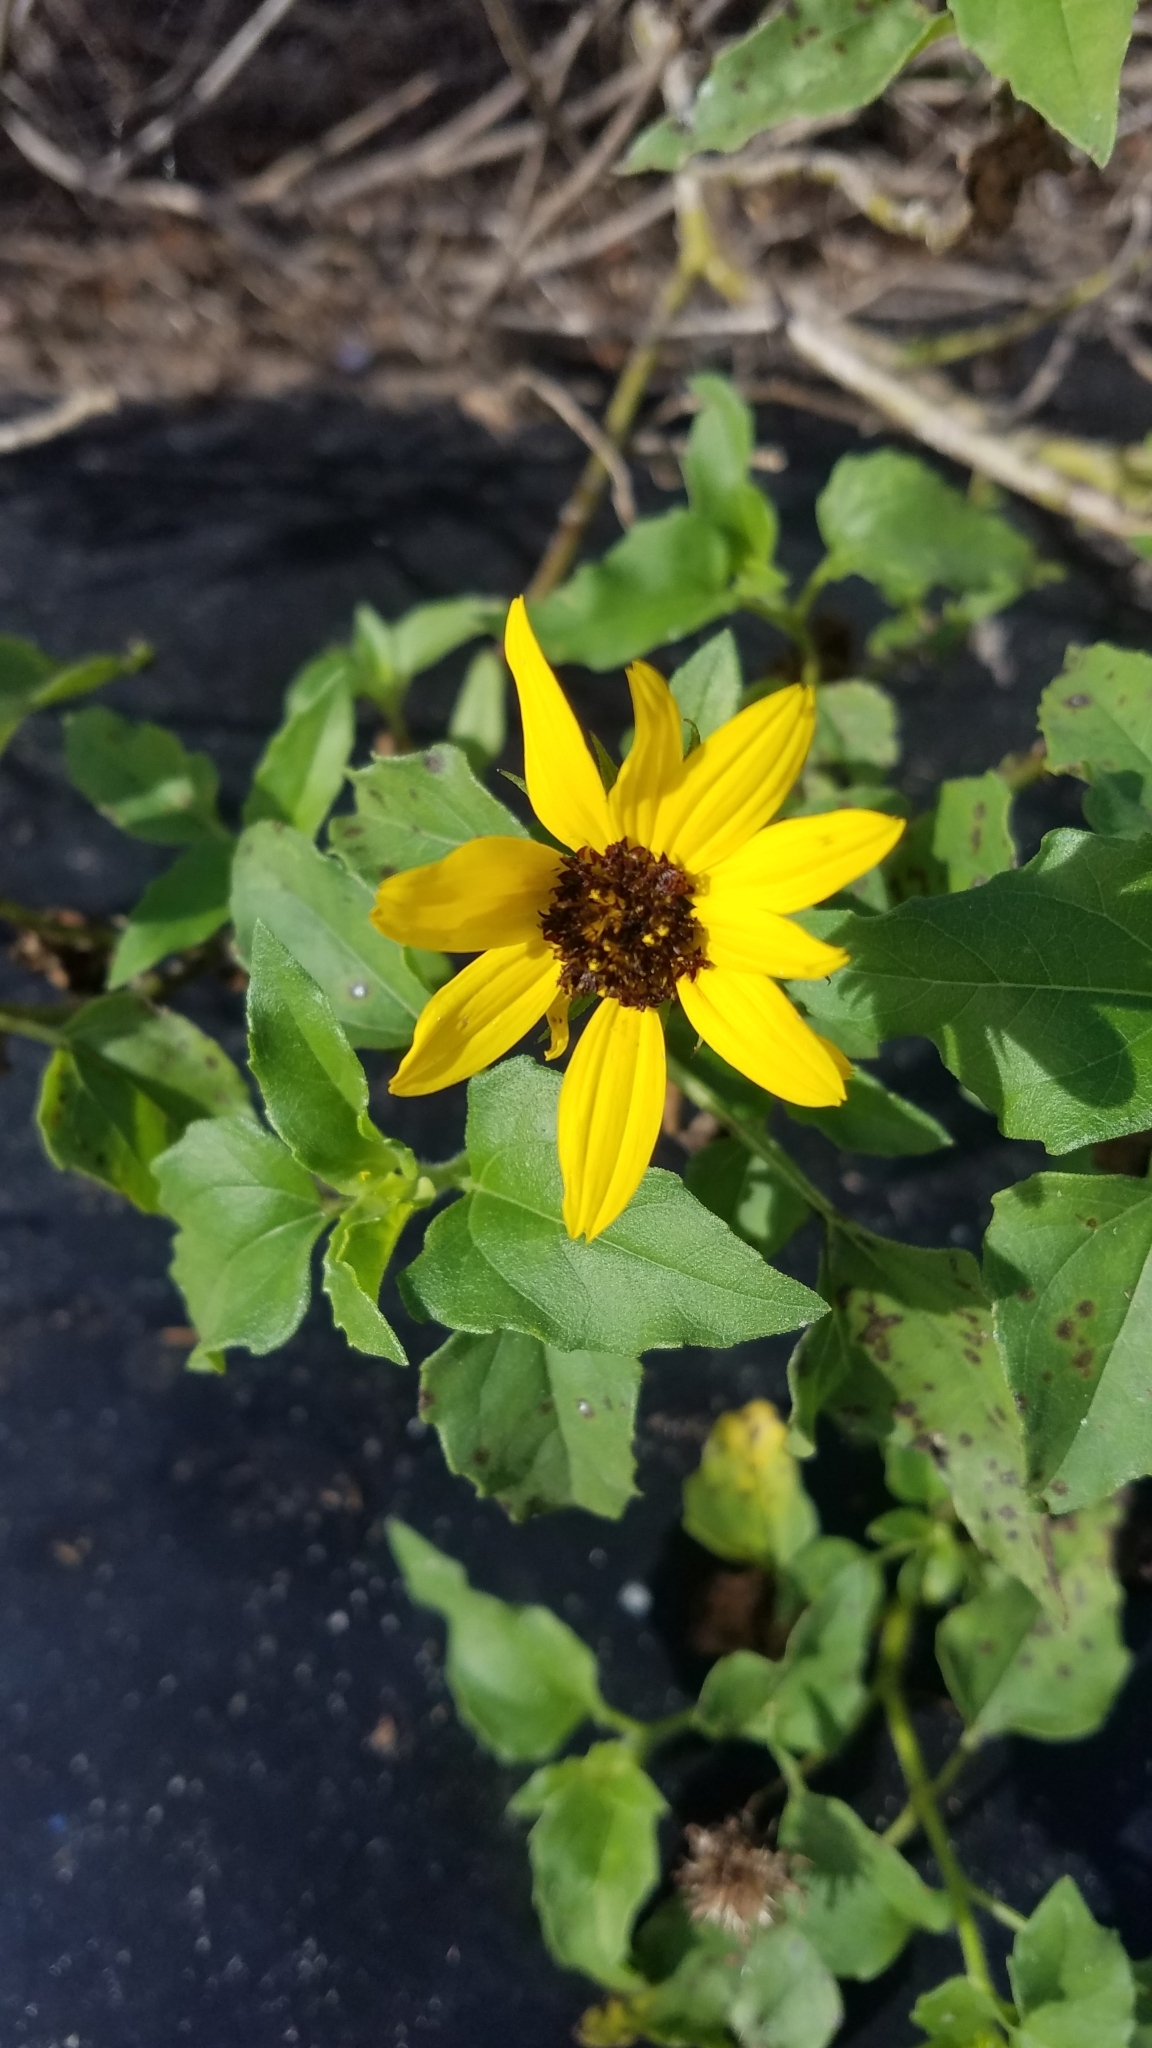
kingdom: Plantae
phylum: Tracheophyta
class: Magnoliopsida
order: Asterales
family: Asteraceae
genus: Helianthus
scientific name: Helianthus debilis
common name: Weak sunflower
